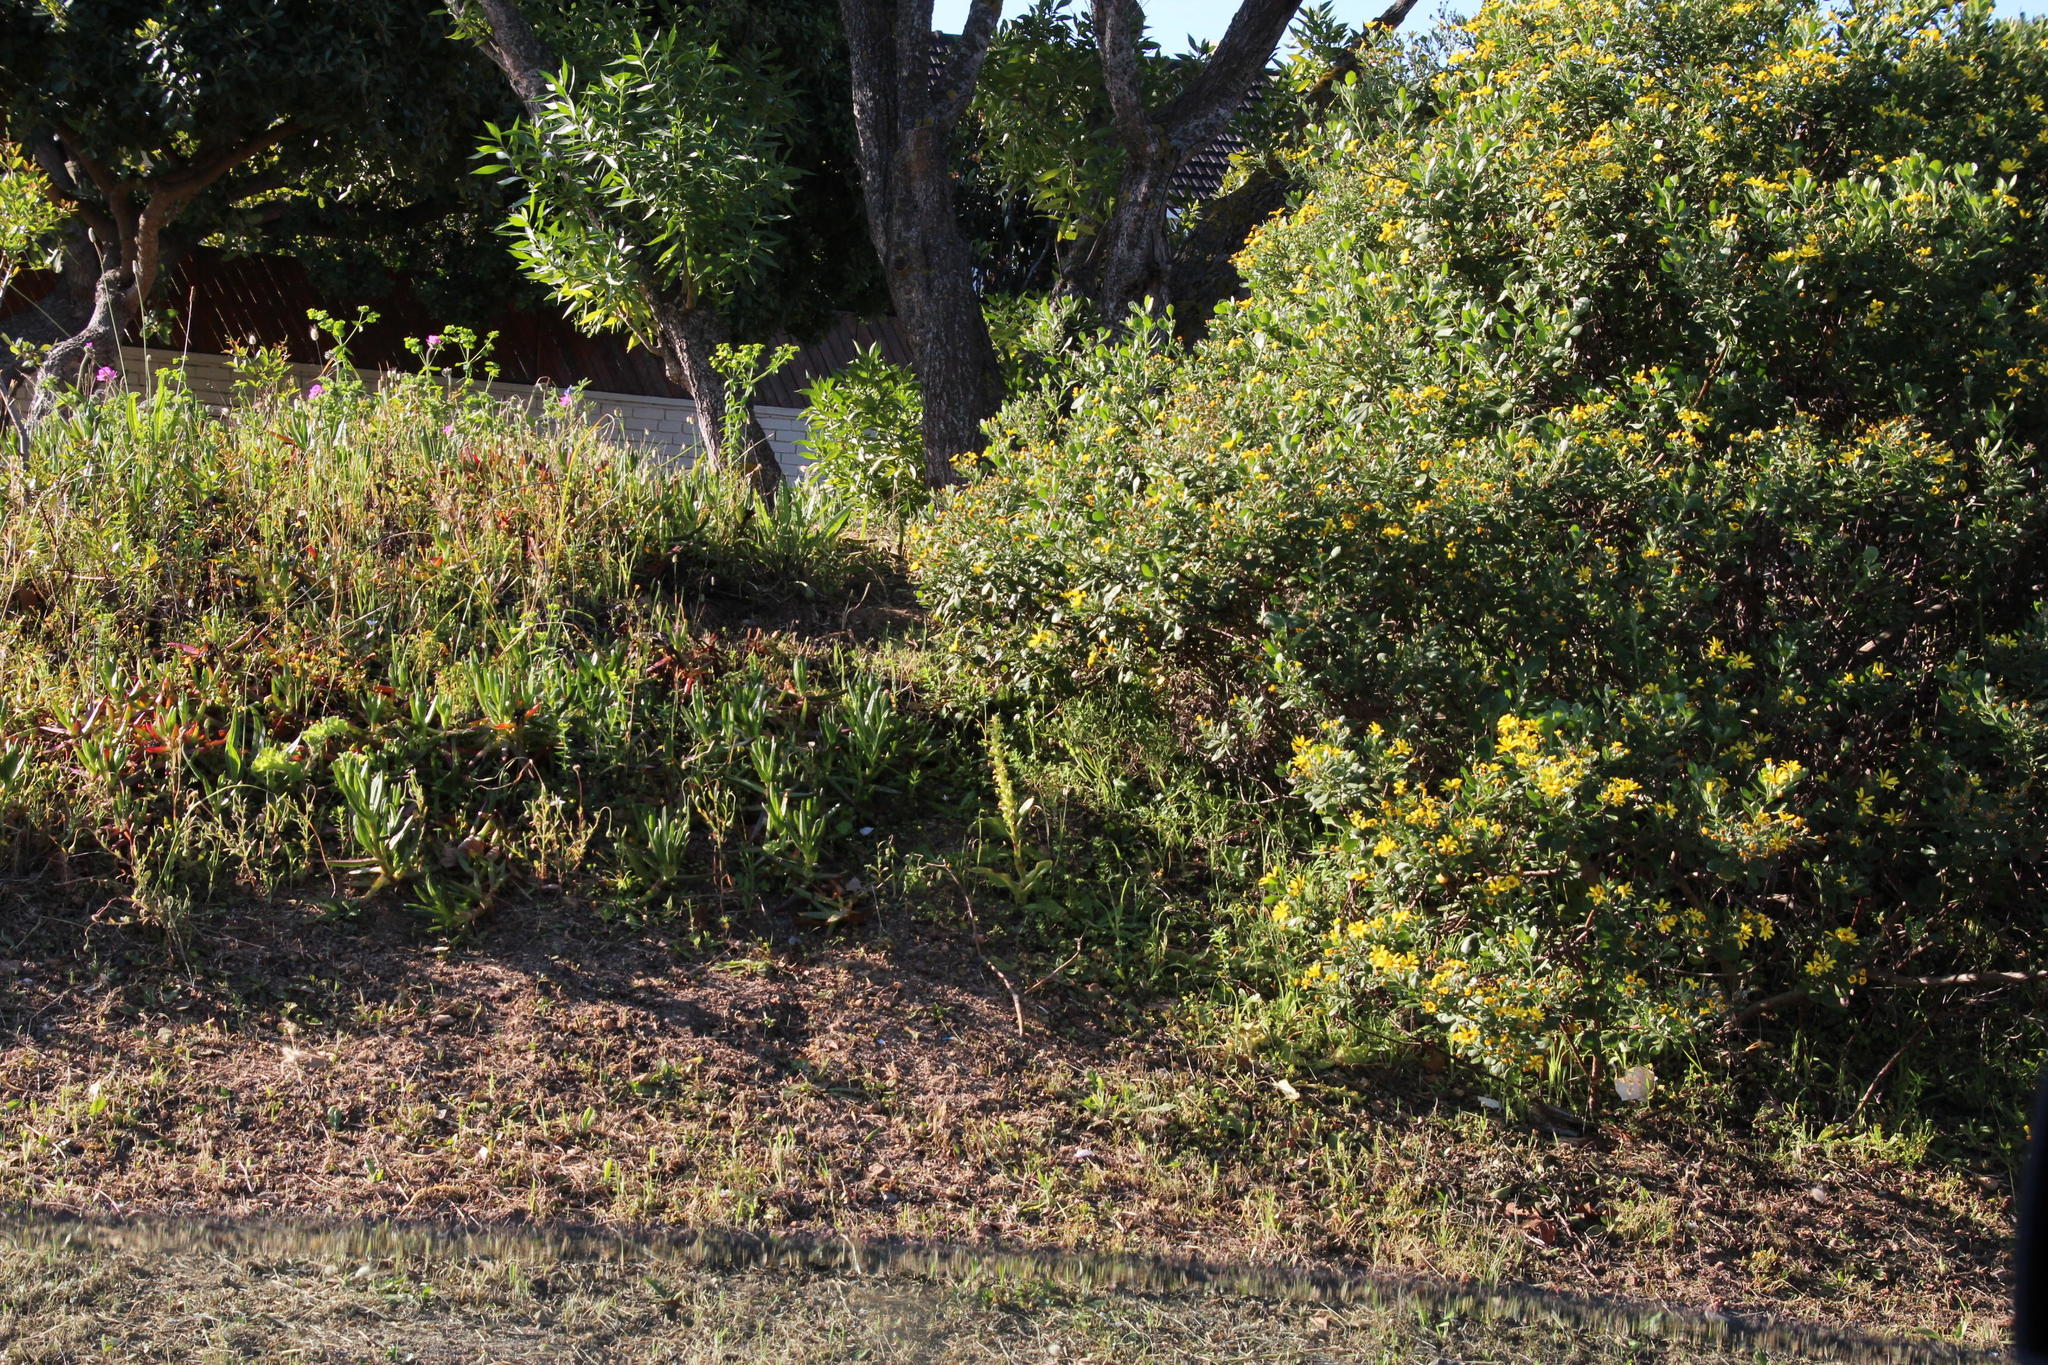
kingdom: Plantae
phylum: Tracheophyta
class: Liliopsida
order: Asparagales
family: Orchidaceae
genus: Satyrium
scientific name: Satyrium odorum
